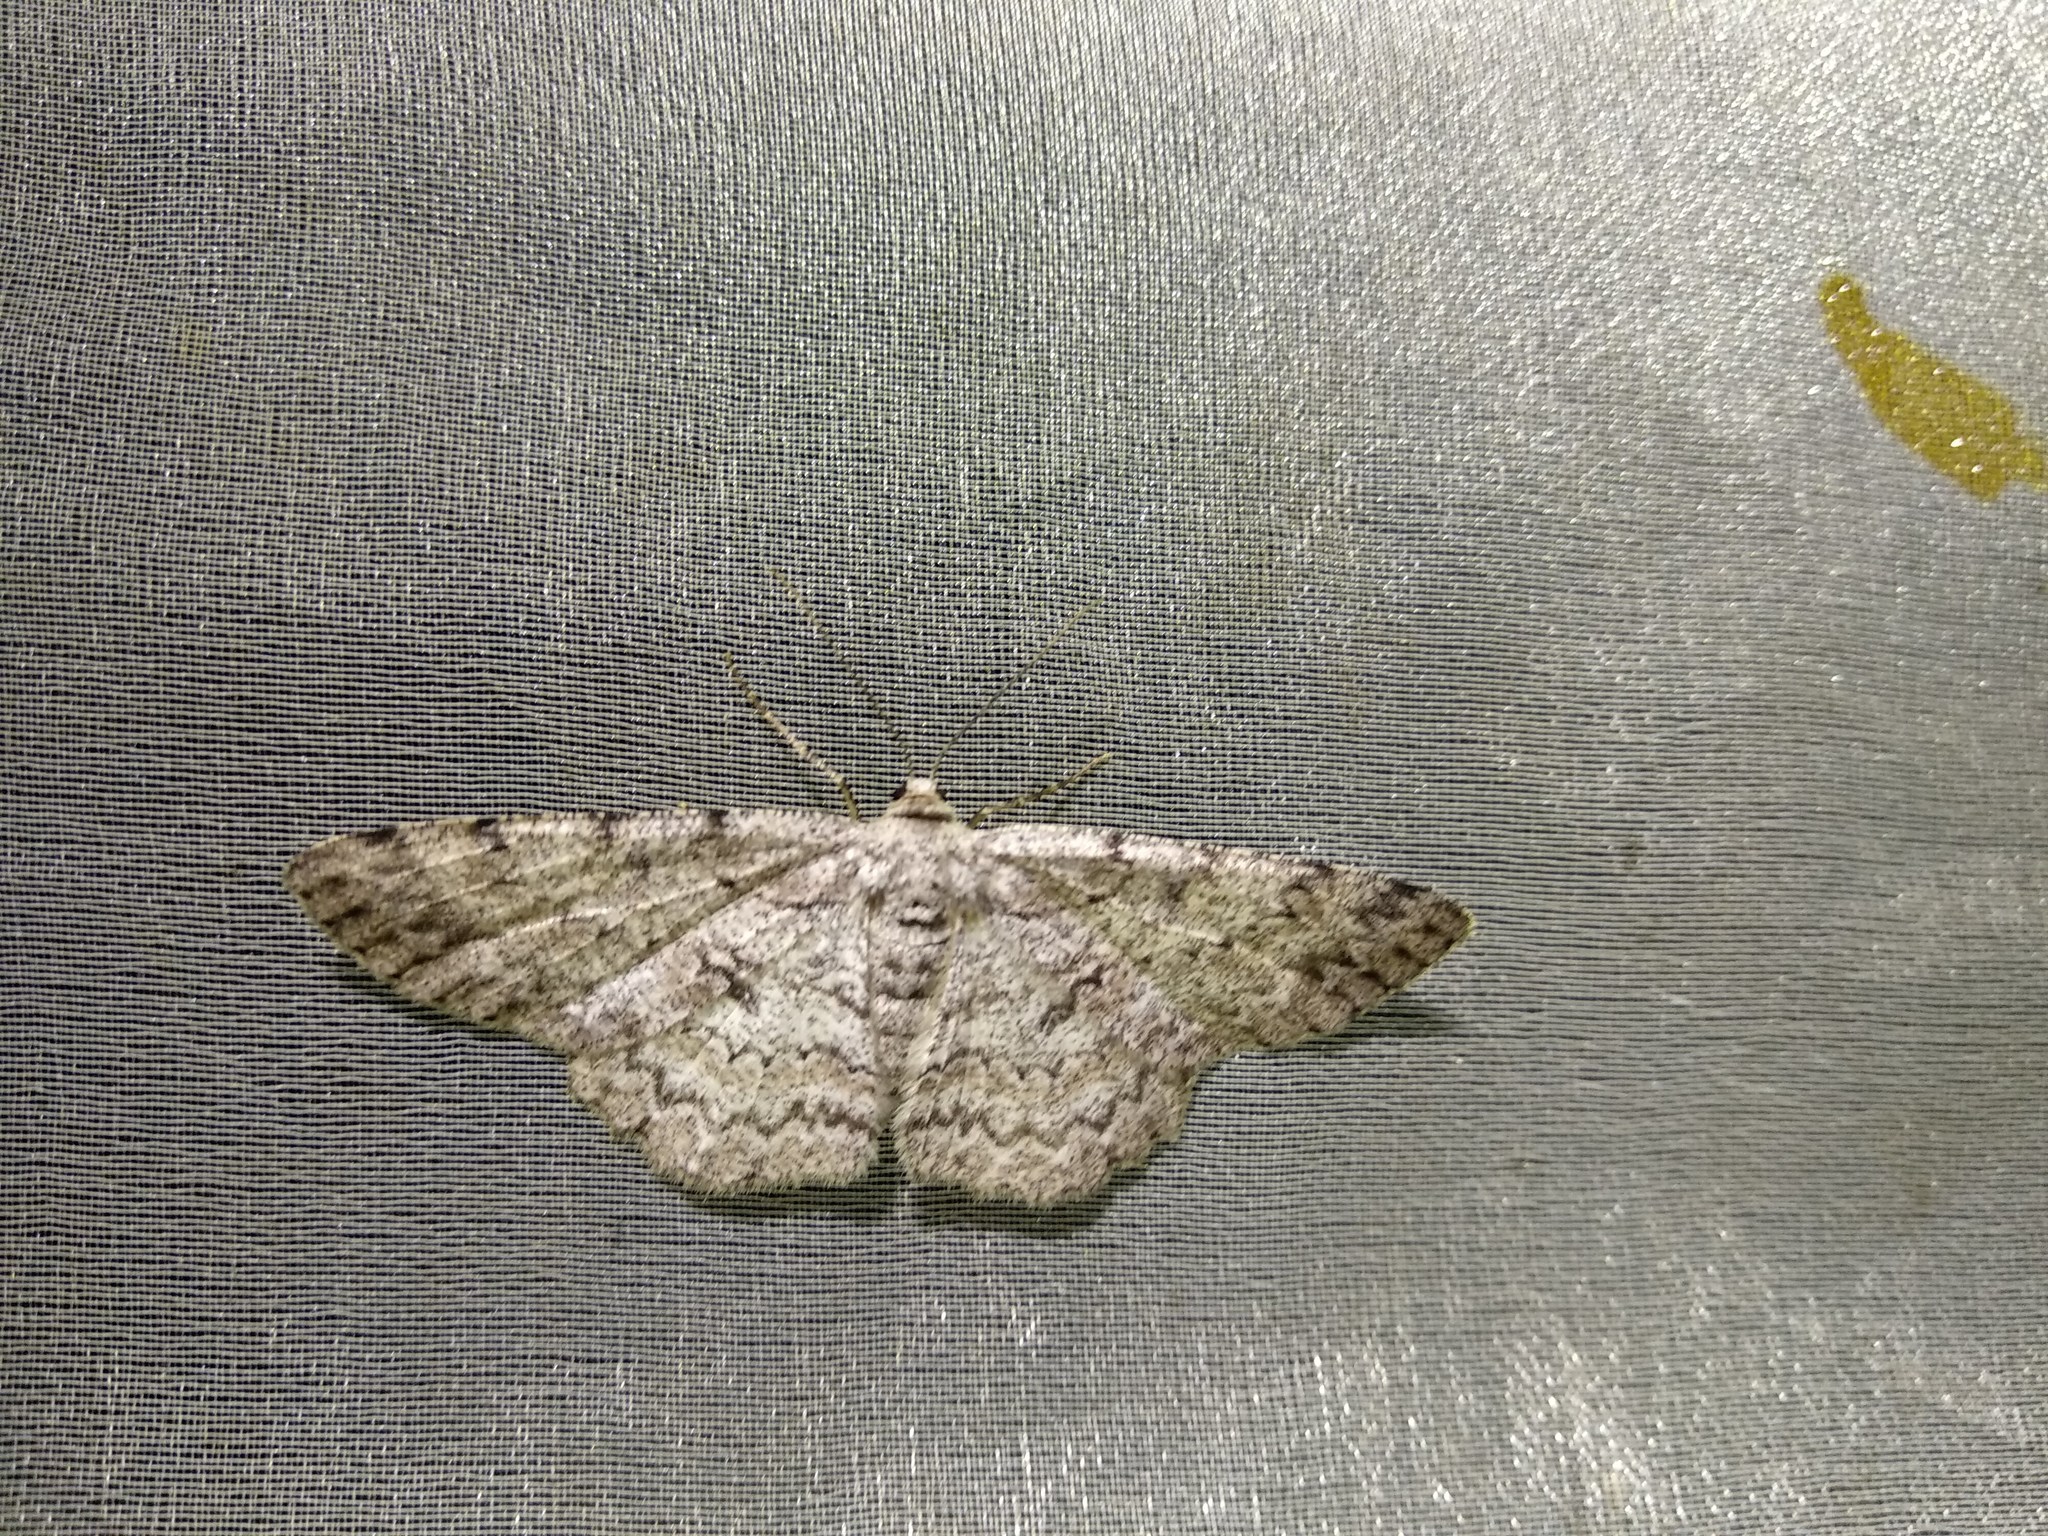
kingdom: Animalia
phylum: Arthropoda
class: Insecta
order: Lepidoptera
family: Geometridae
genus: Hypomecis
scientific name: Hypomecis punctinalis
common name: Pale oak beauty
